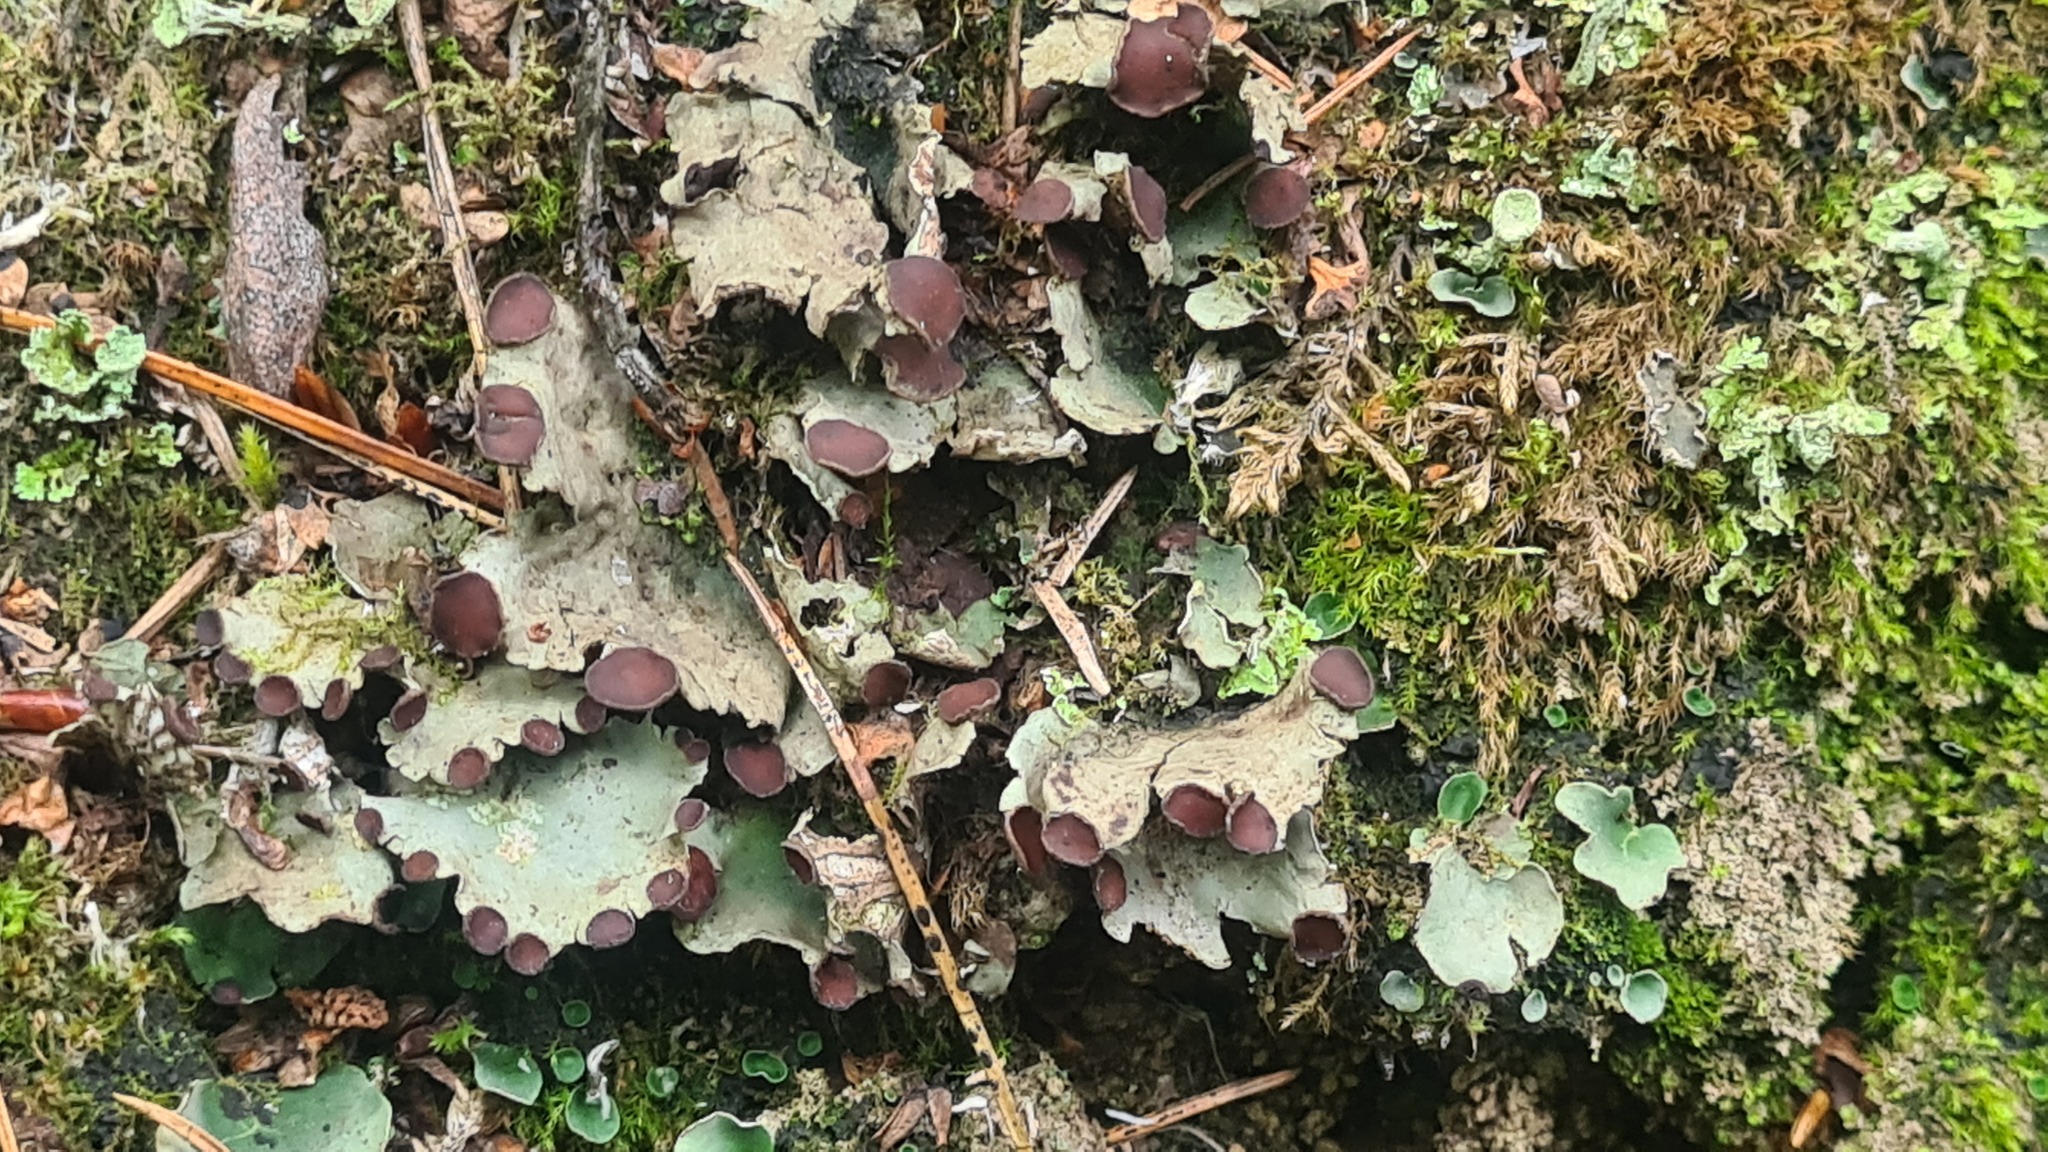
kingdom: Fungi
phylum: Ascomycota
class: Lecanoromycetes
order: Peltigerales
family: Peltigeraceae
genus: Peltigera
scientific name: Peltigera venosa
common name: Pixie gowns lichen
